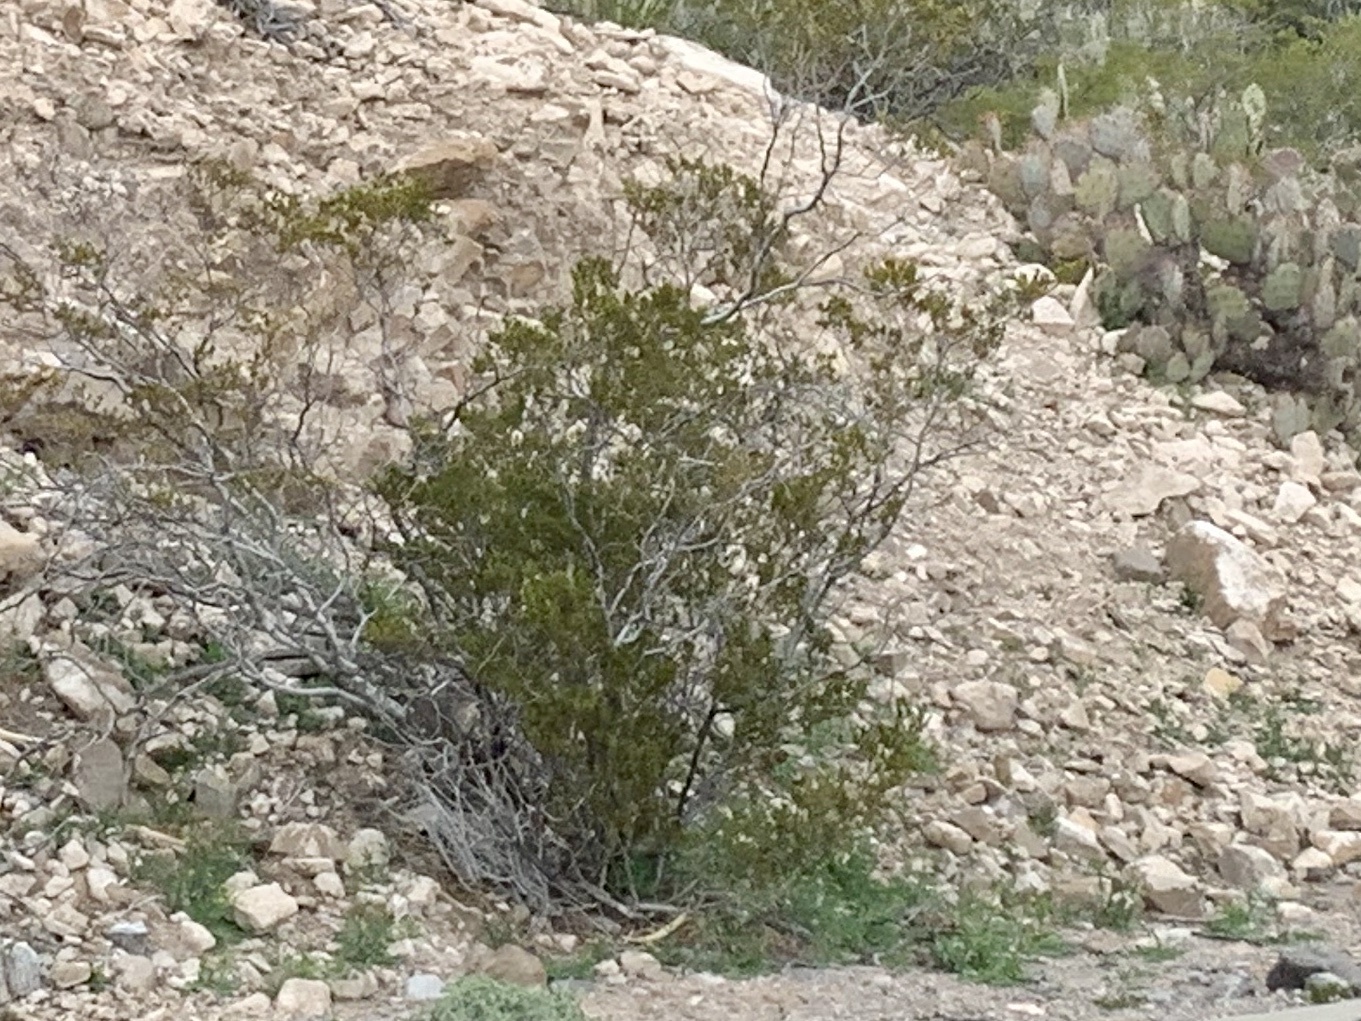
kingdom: Plantae
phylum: Tracheophyta
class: Magnoliopsida
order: Zygophyllales
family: Zygophyllaceae
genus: Larrea
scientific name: Larrea tridentata
